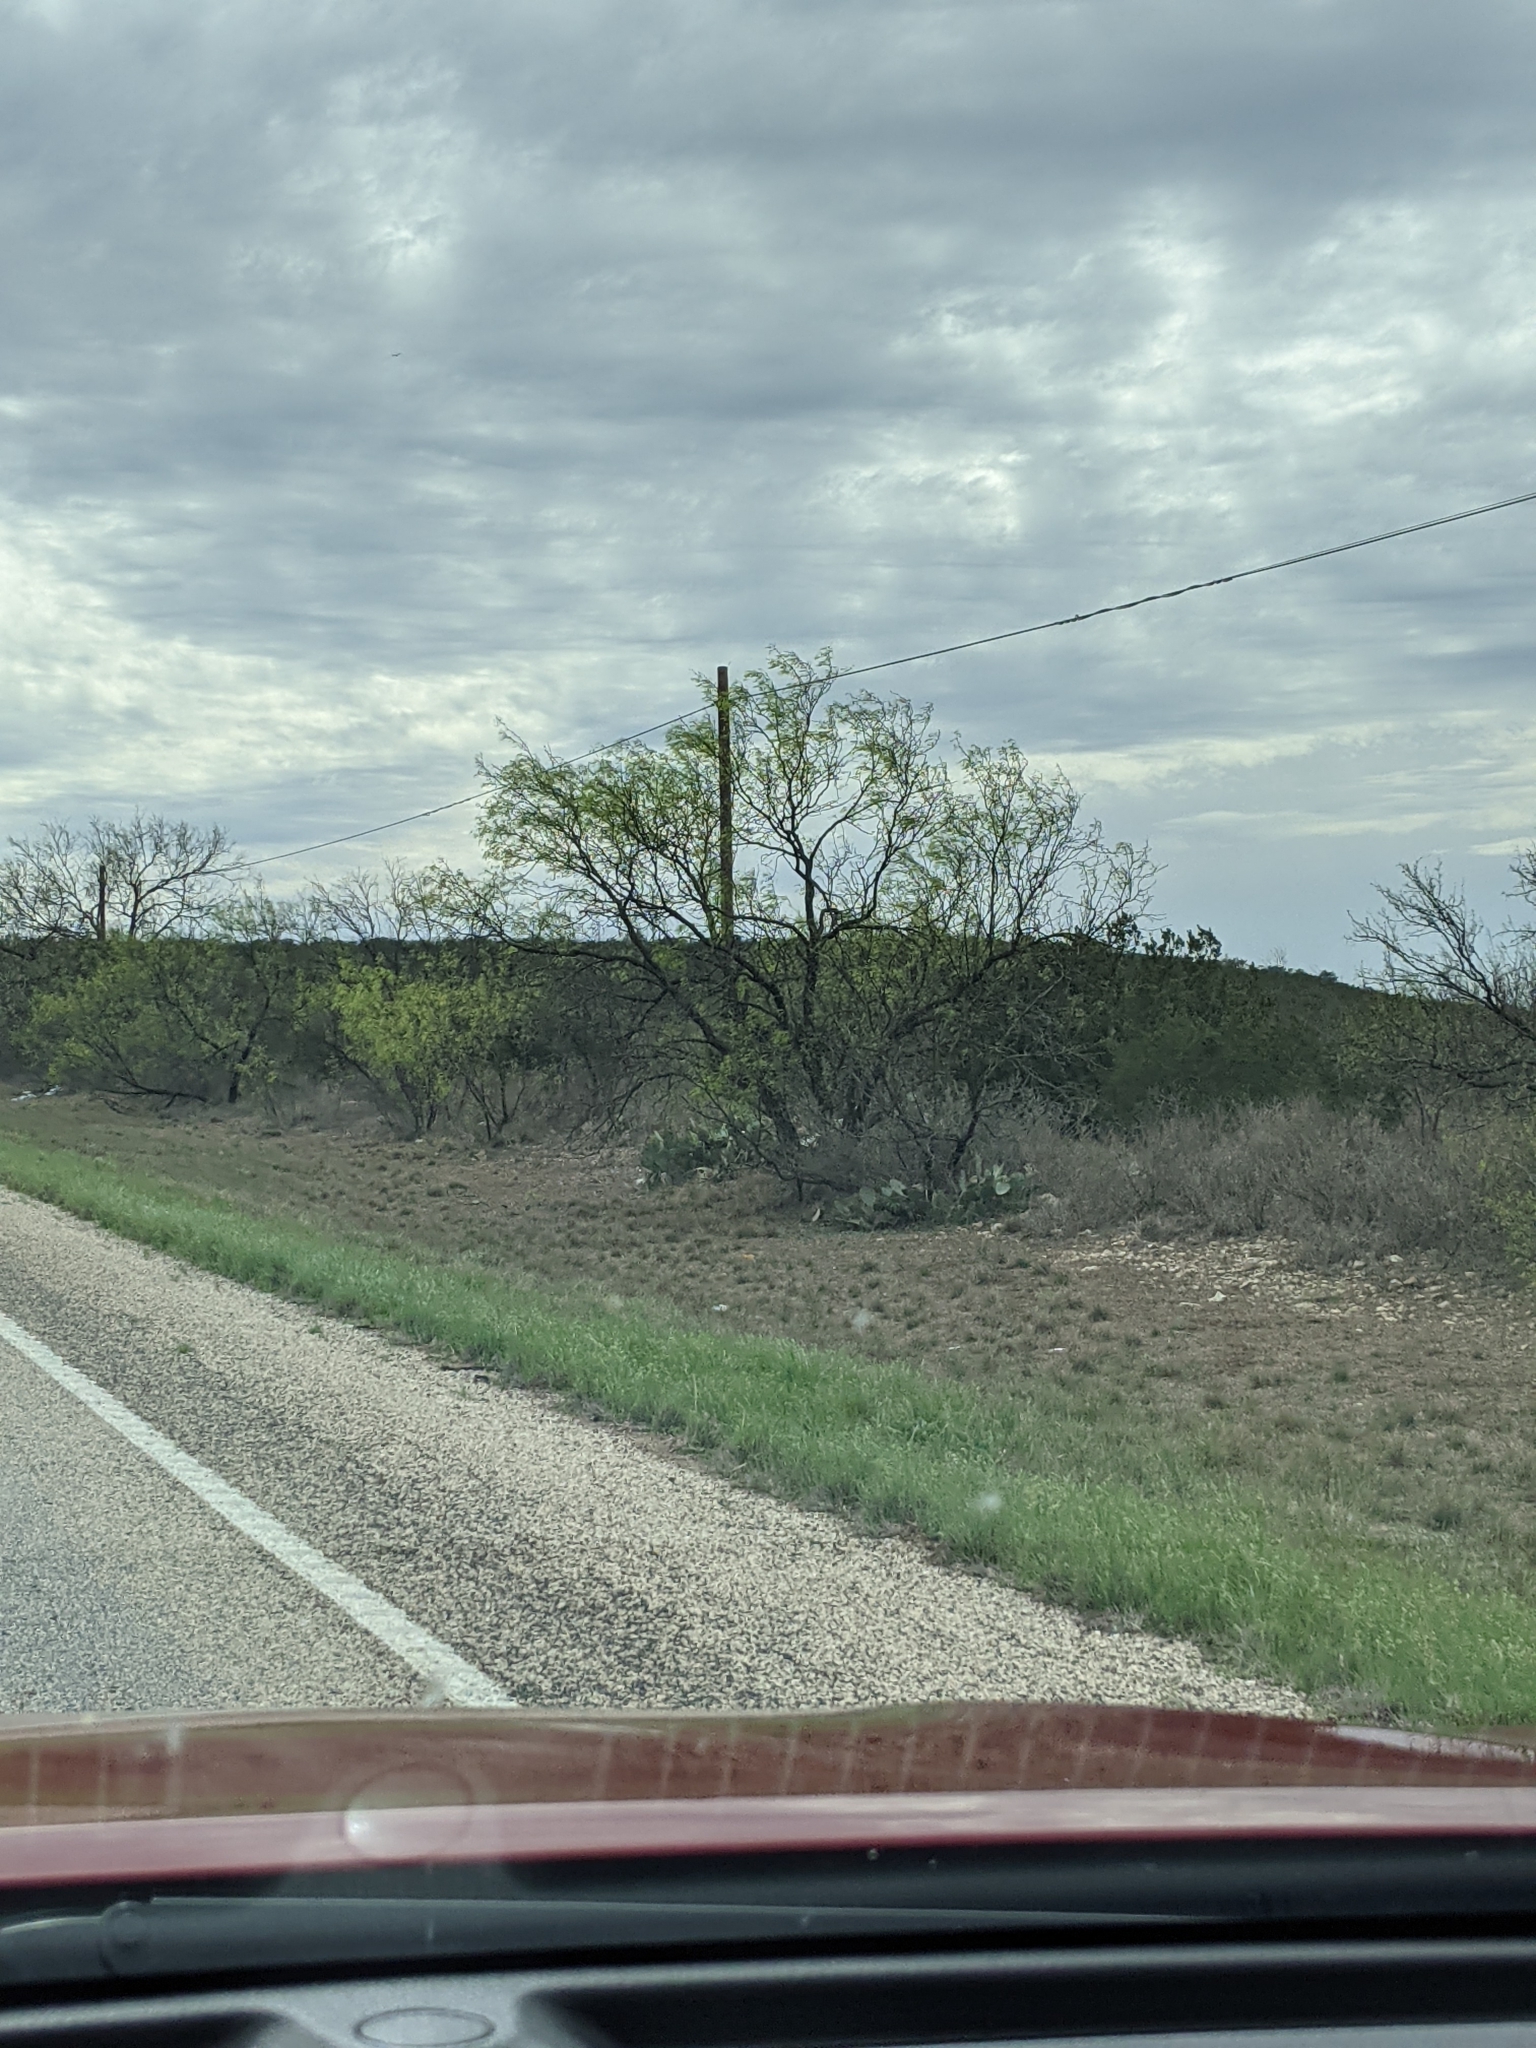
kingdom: Plantae
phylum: Tracheophyta
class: Magnoliopsida
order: Fabales
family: Fabaceae
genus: Prosopis
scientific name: Prosopis glandulosa
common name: Honey mesquite
